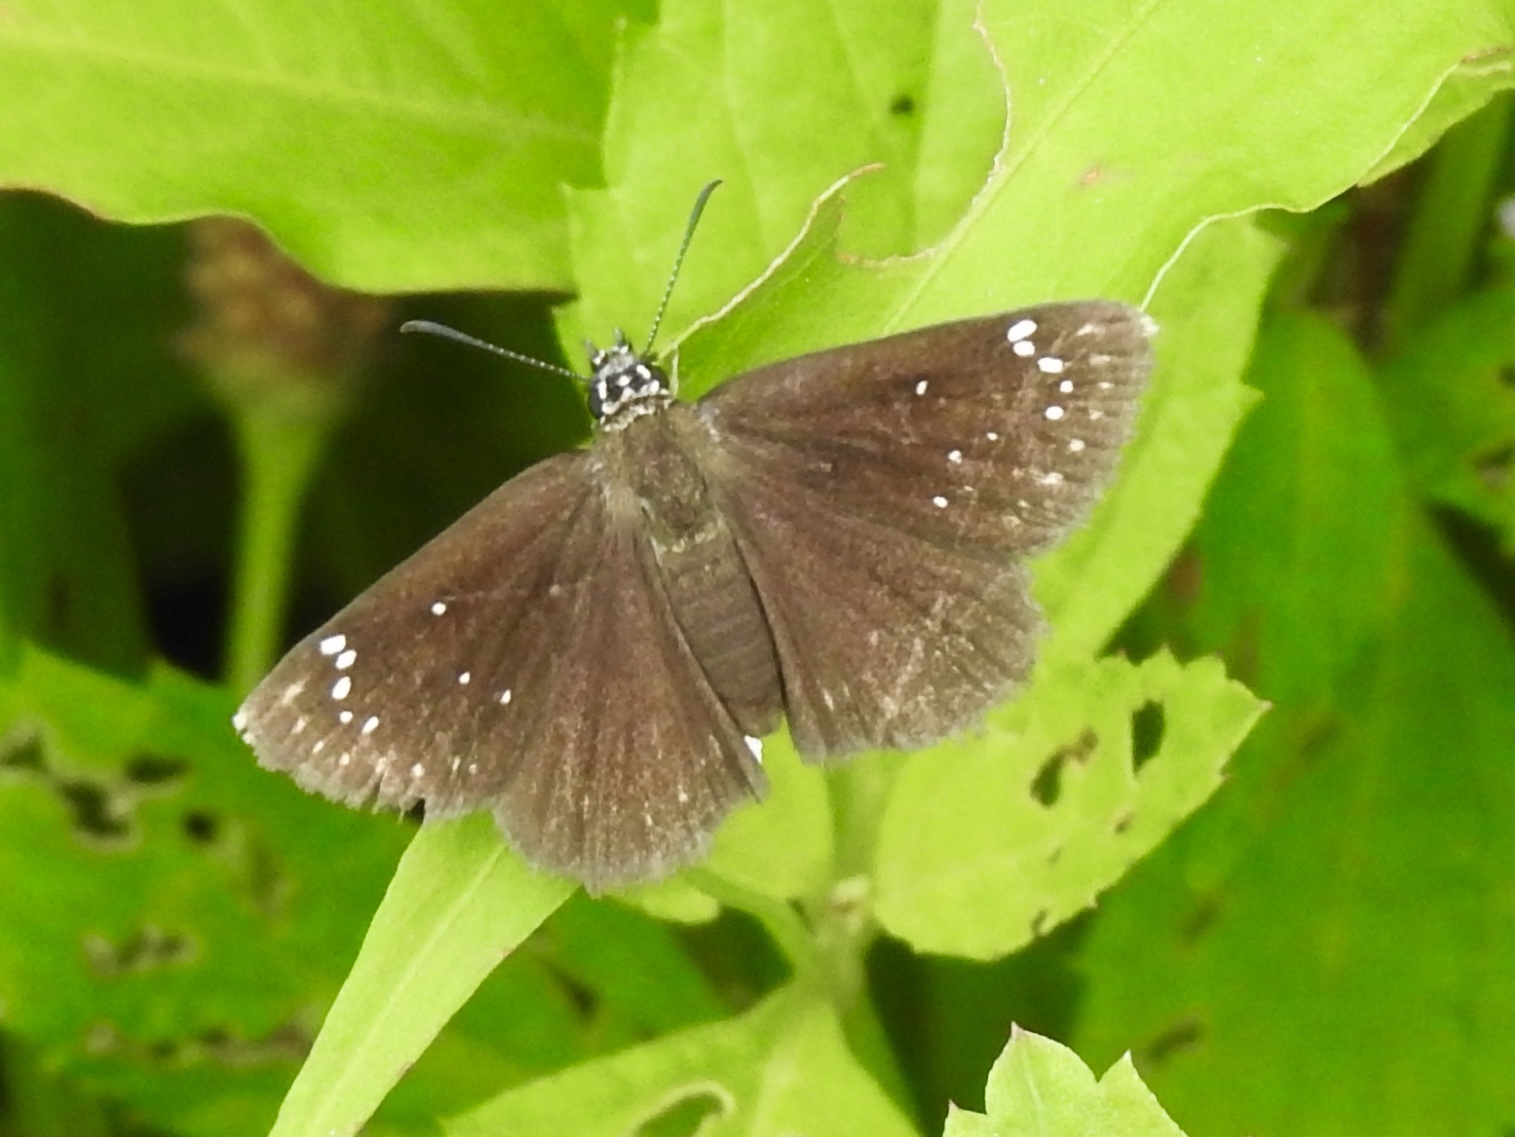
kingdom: Animalia
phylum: Arthropoda
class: Insecta
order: Lepidoptera
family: Hesperiidae
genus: Pholisora
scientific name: Pholisora catullus
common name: Common sootywing
